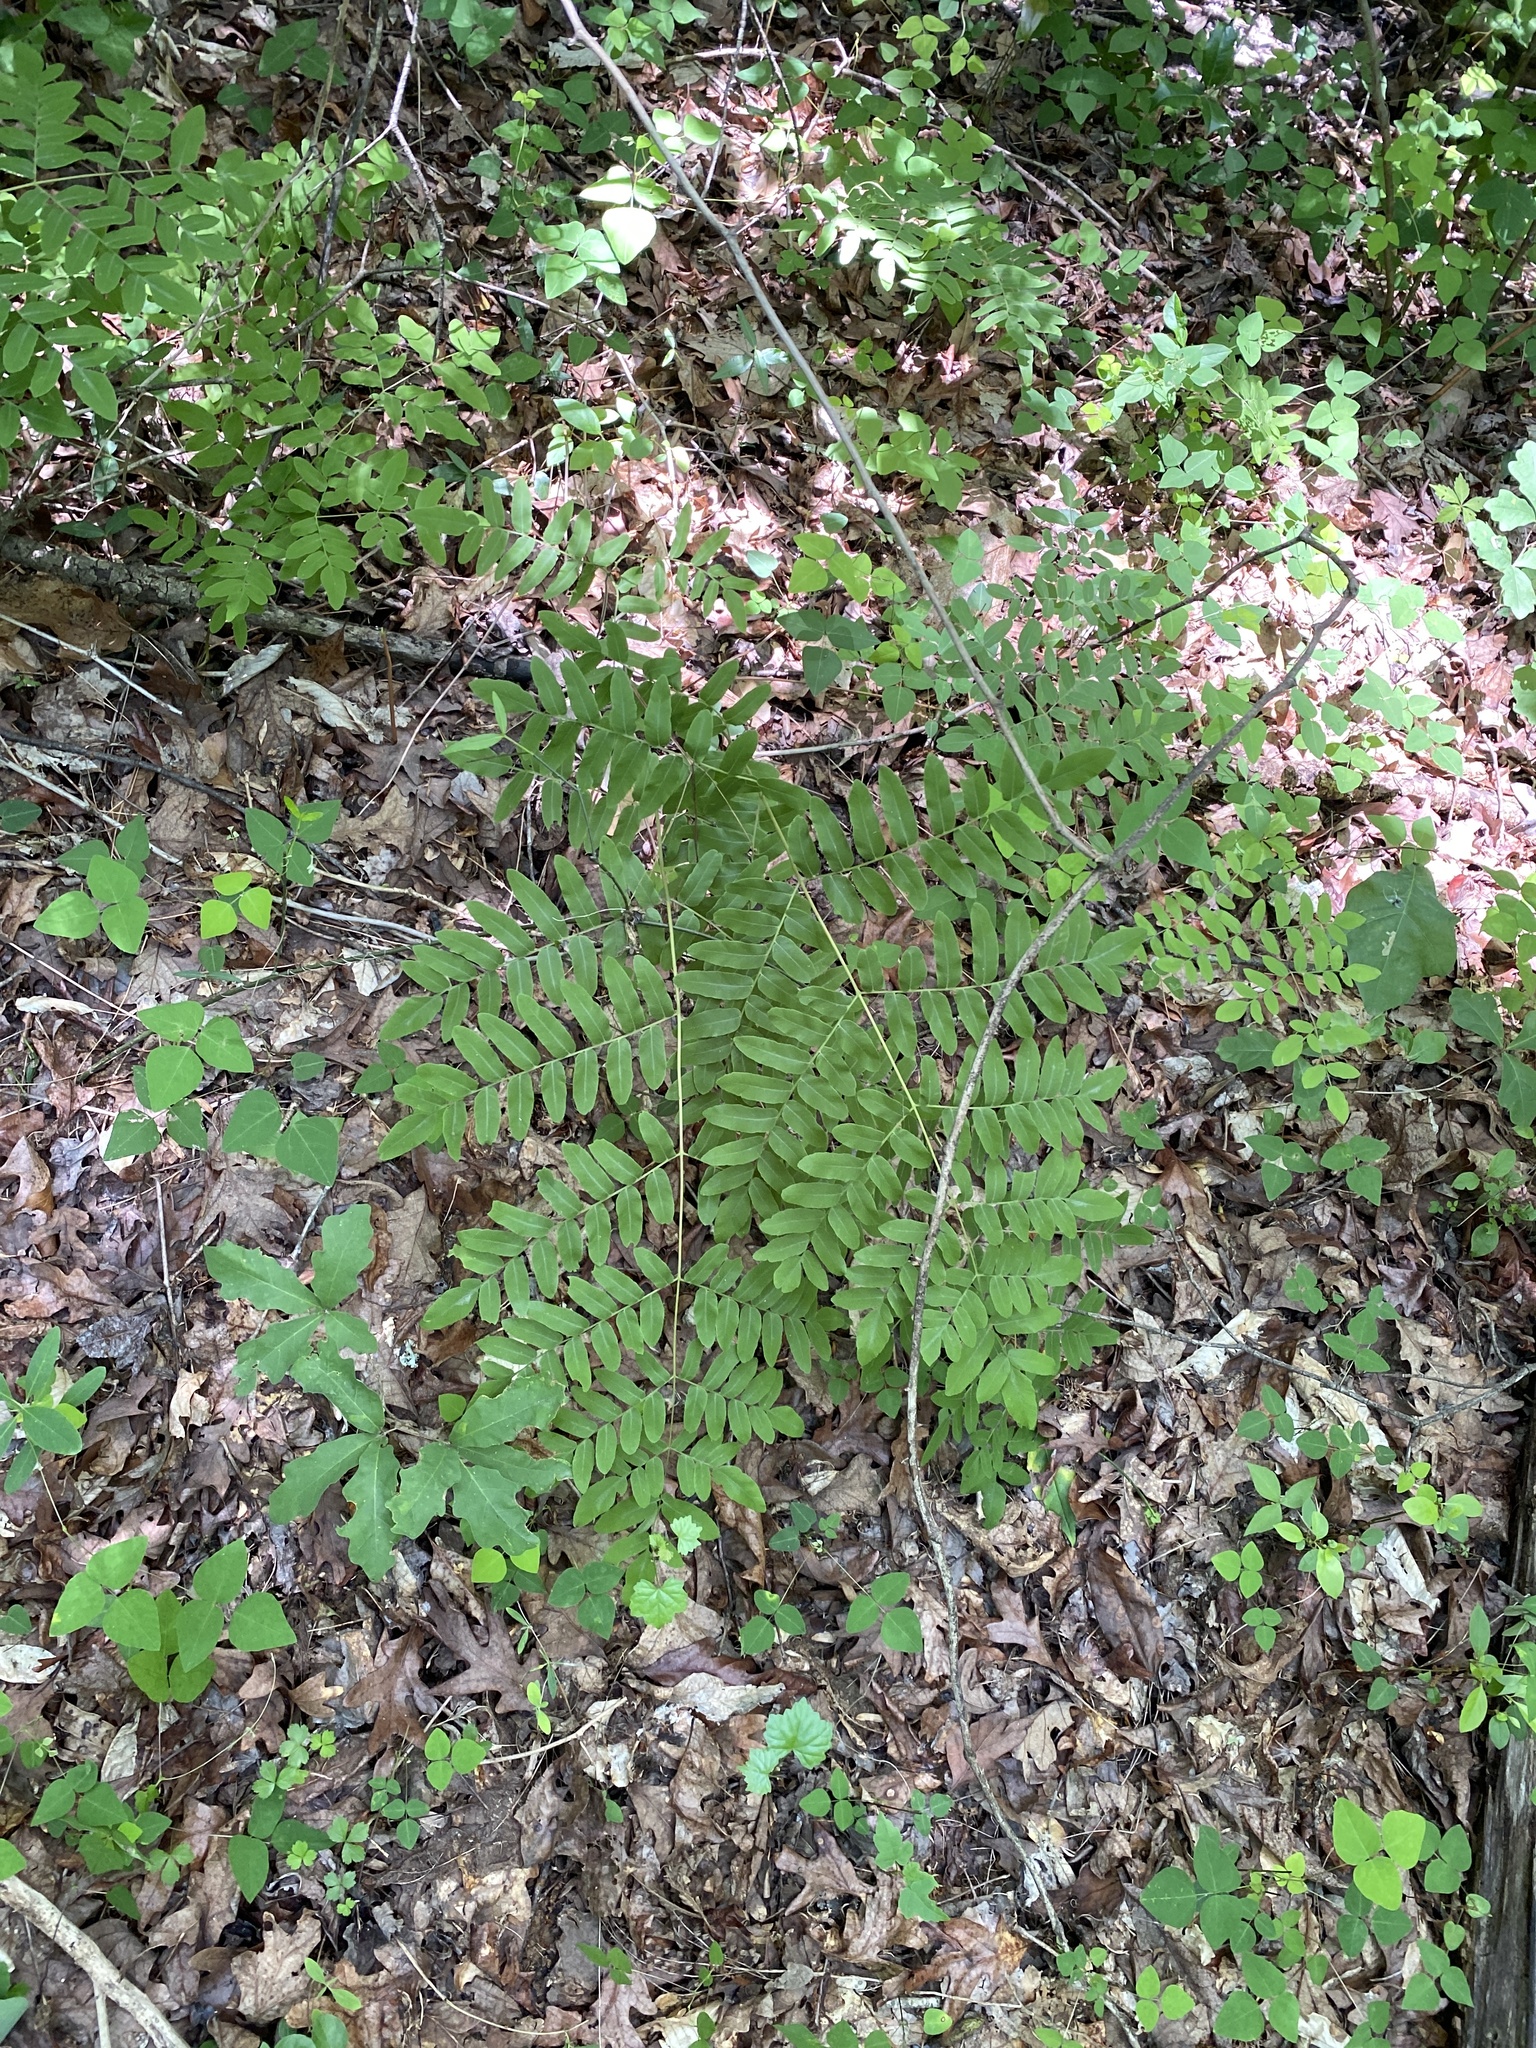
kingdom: Plantae
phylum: Tracheophyta
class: Polypodiopsida
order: Osmundales
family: Osmundaceae
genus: Osmunda
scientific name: Osmunda spectabilis
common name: American royal fern
